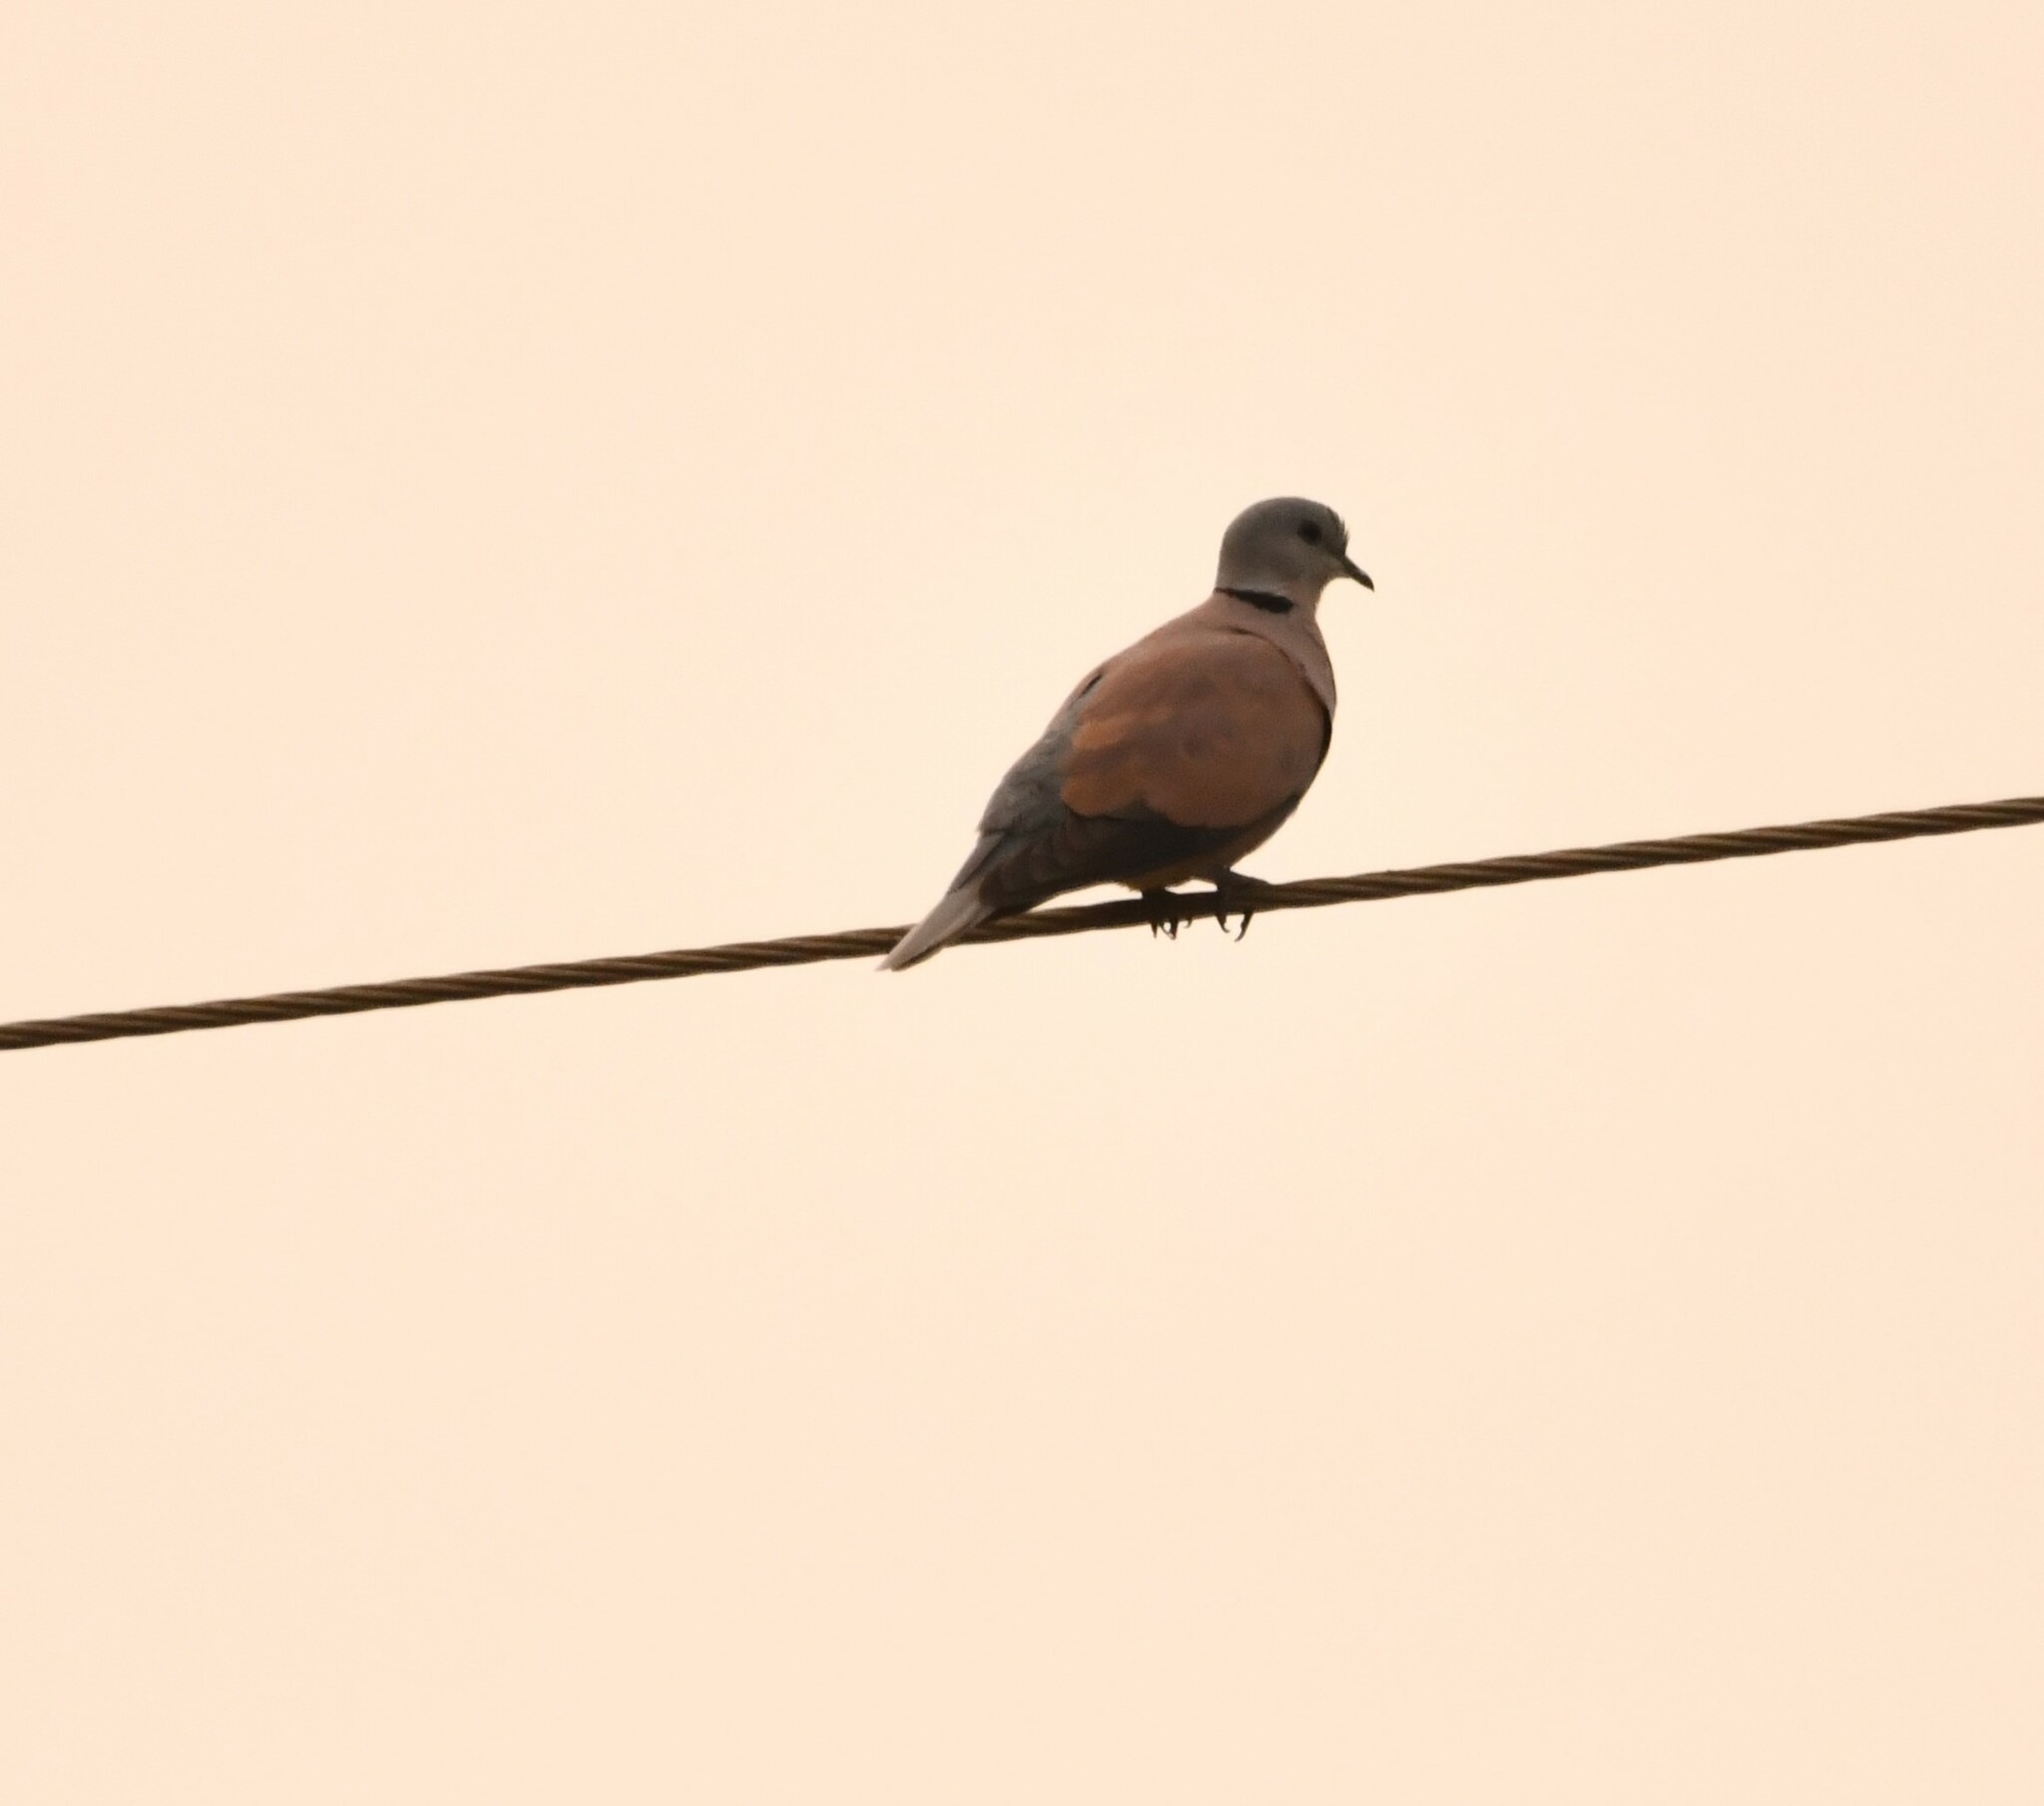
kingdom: Animalia
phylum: Chordata
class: Aves
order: Columbiformes
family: Columbidae
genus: Streptopelia
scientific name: Streptopelia tranquebarica
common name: Red turtle dove
